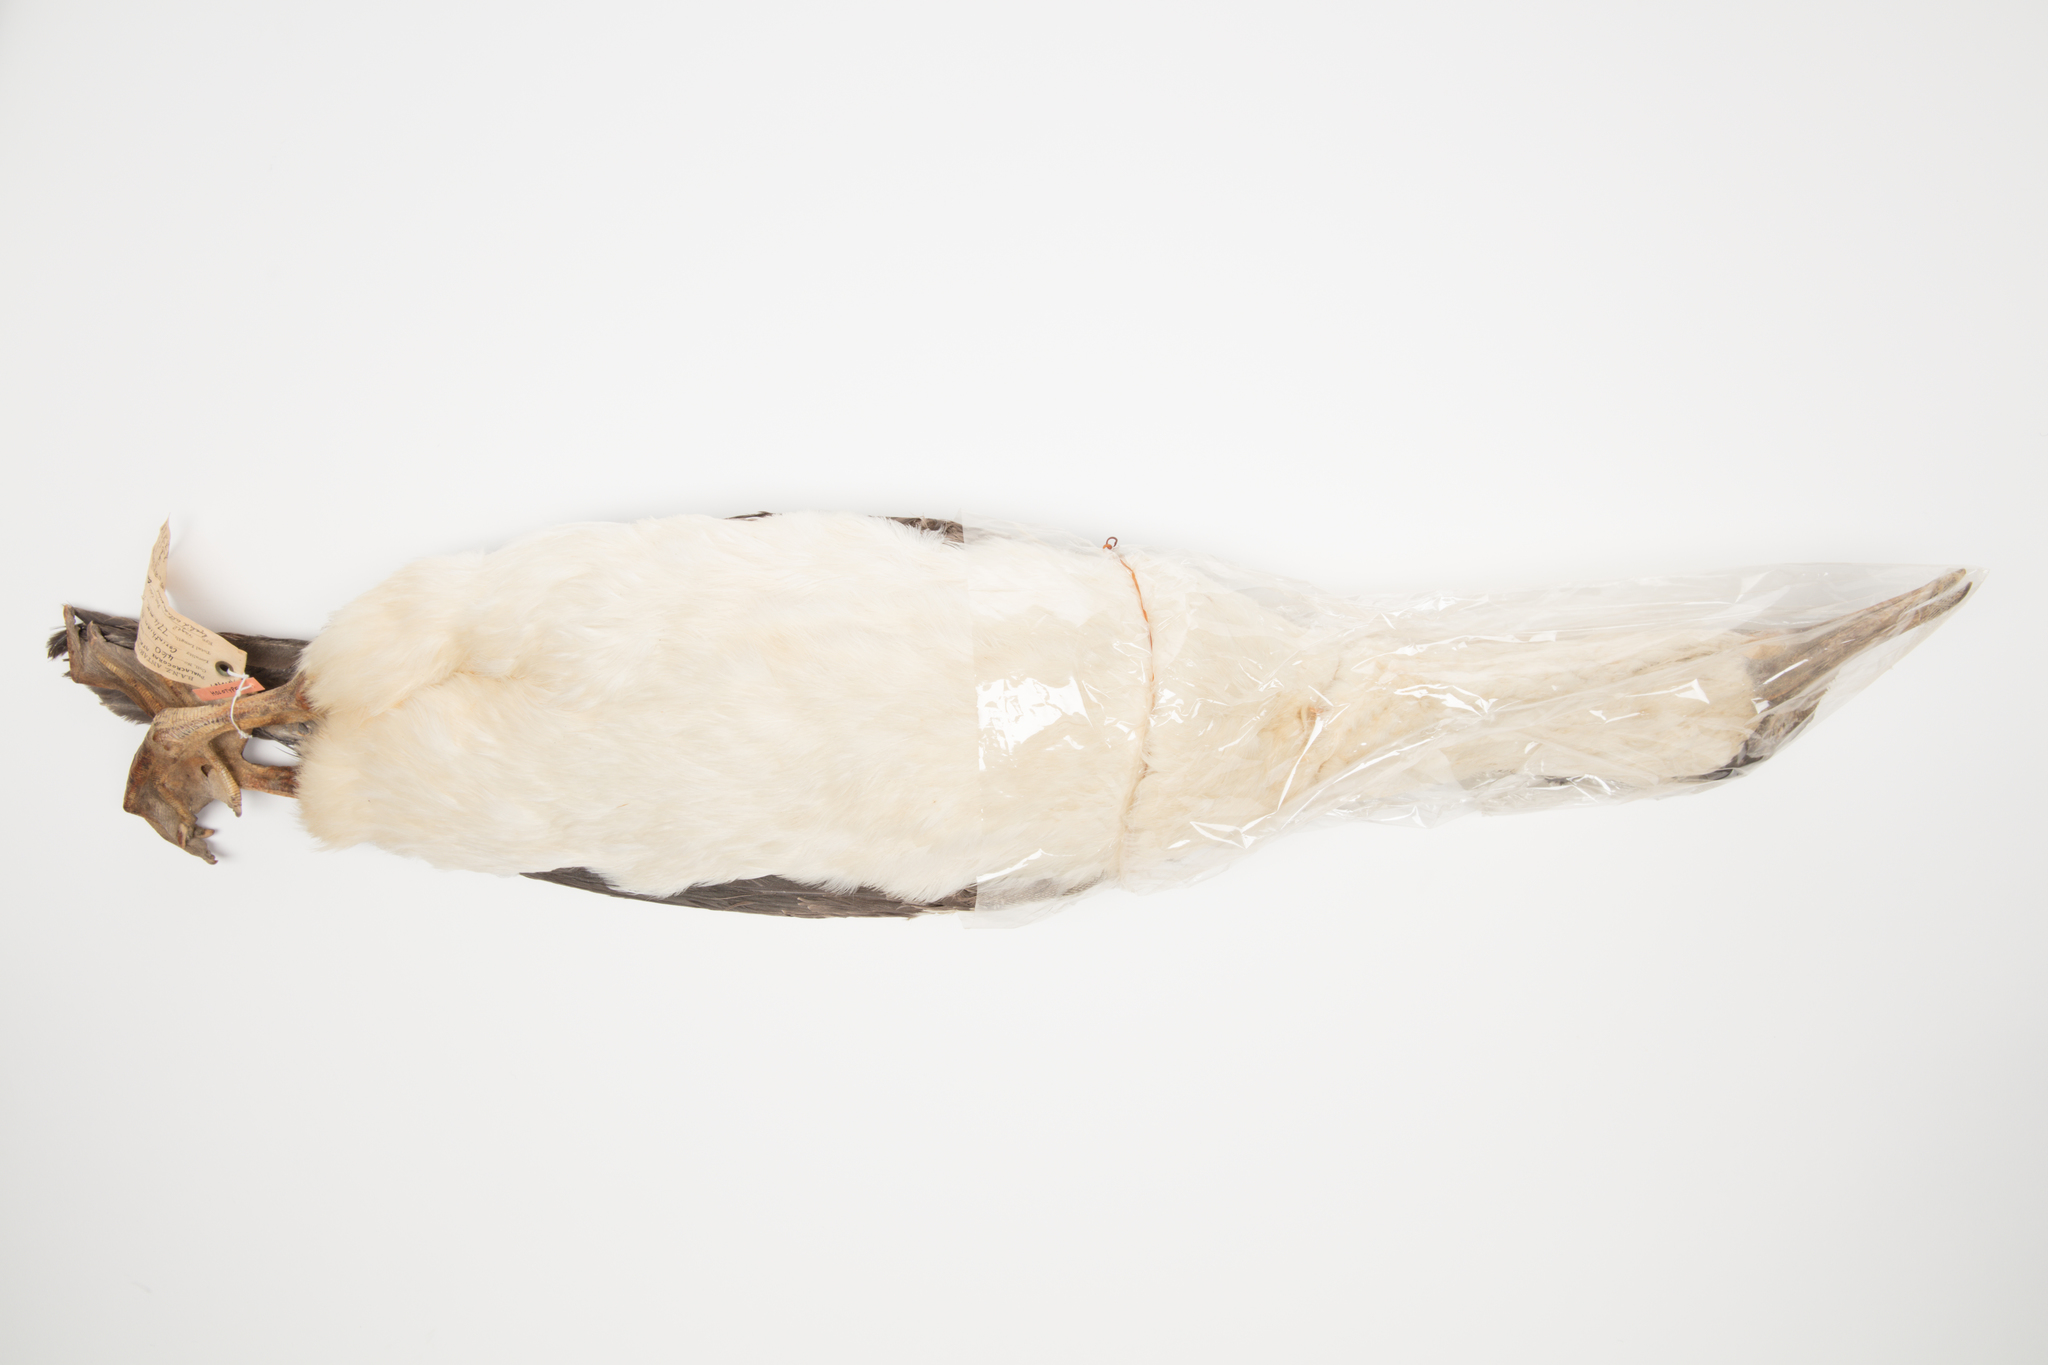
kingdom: Animalia
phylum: Chordata
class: Aves
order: Suliformes
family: Phalacrocoracidae
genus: Leucocarbo
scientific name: Leucocarbo atriceps
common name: Imperial shag
